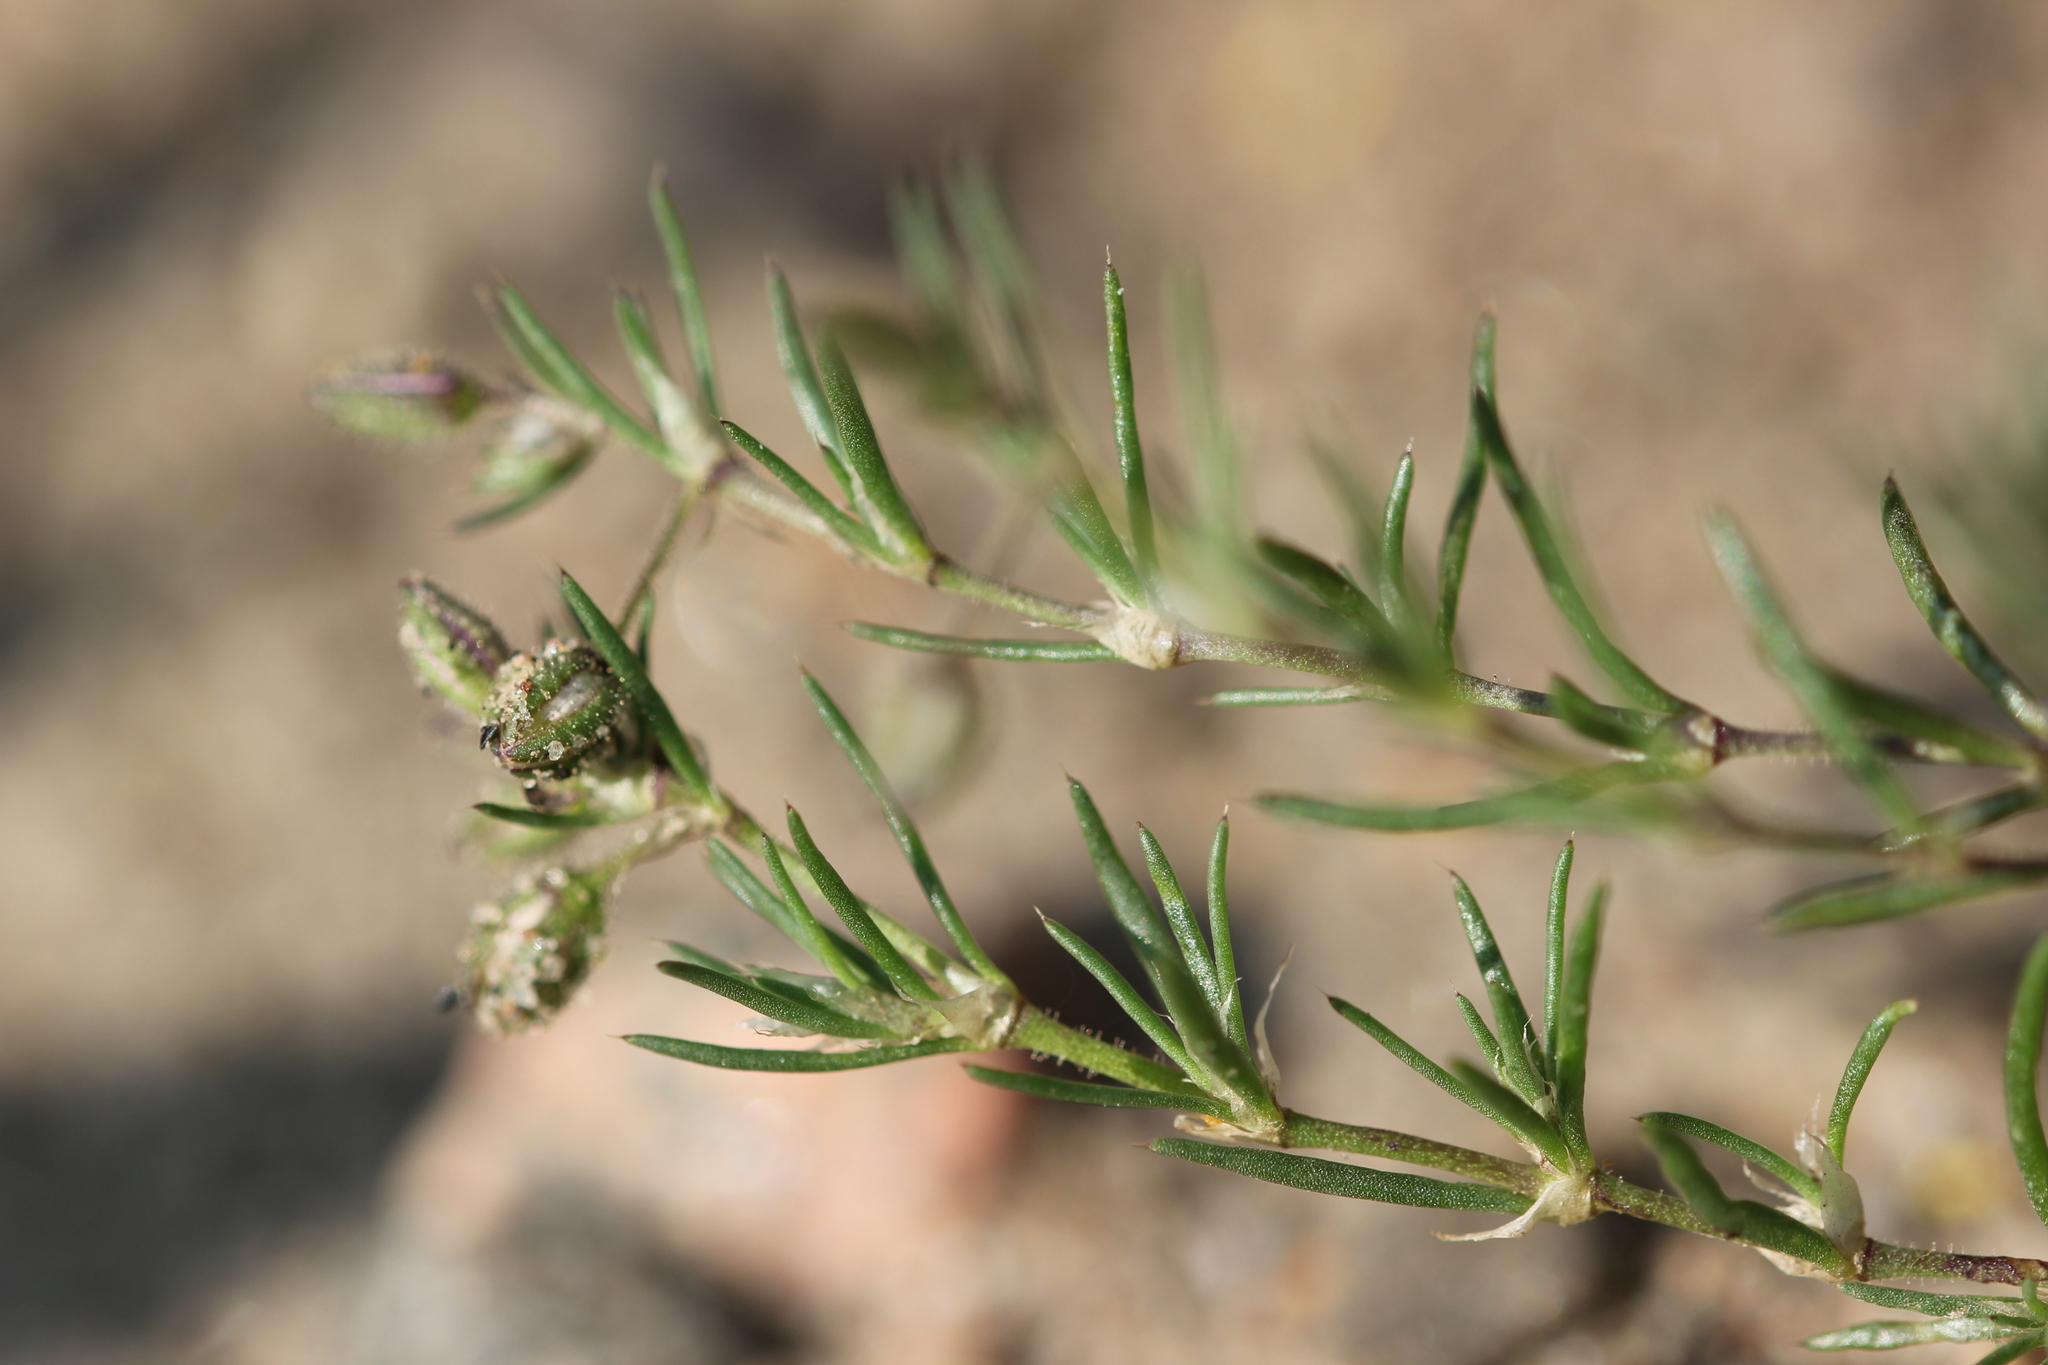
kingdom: Plantae
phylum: Tracheophyta
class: Magnoliopsida
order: Caryophyllales
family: Caryophyllaceae
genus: Spergularia
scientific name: Spergularia rubra
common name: Red sand-spurrey
